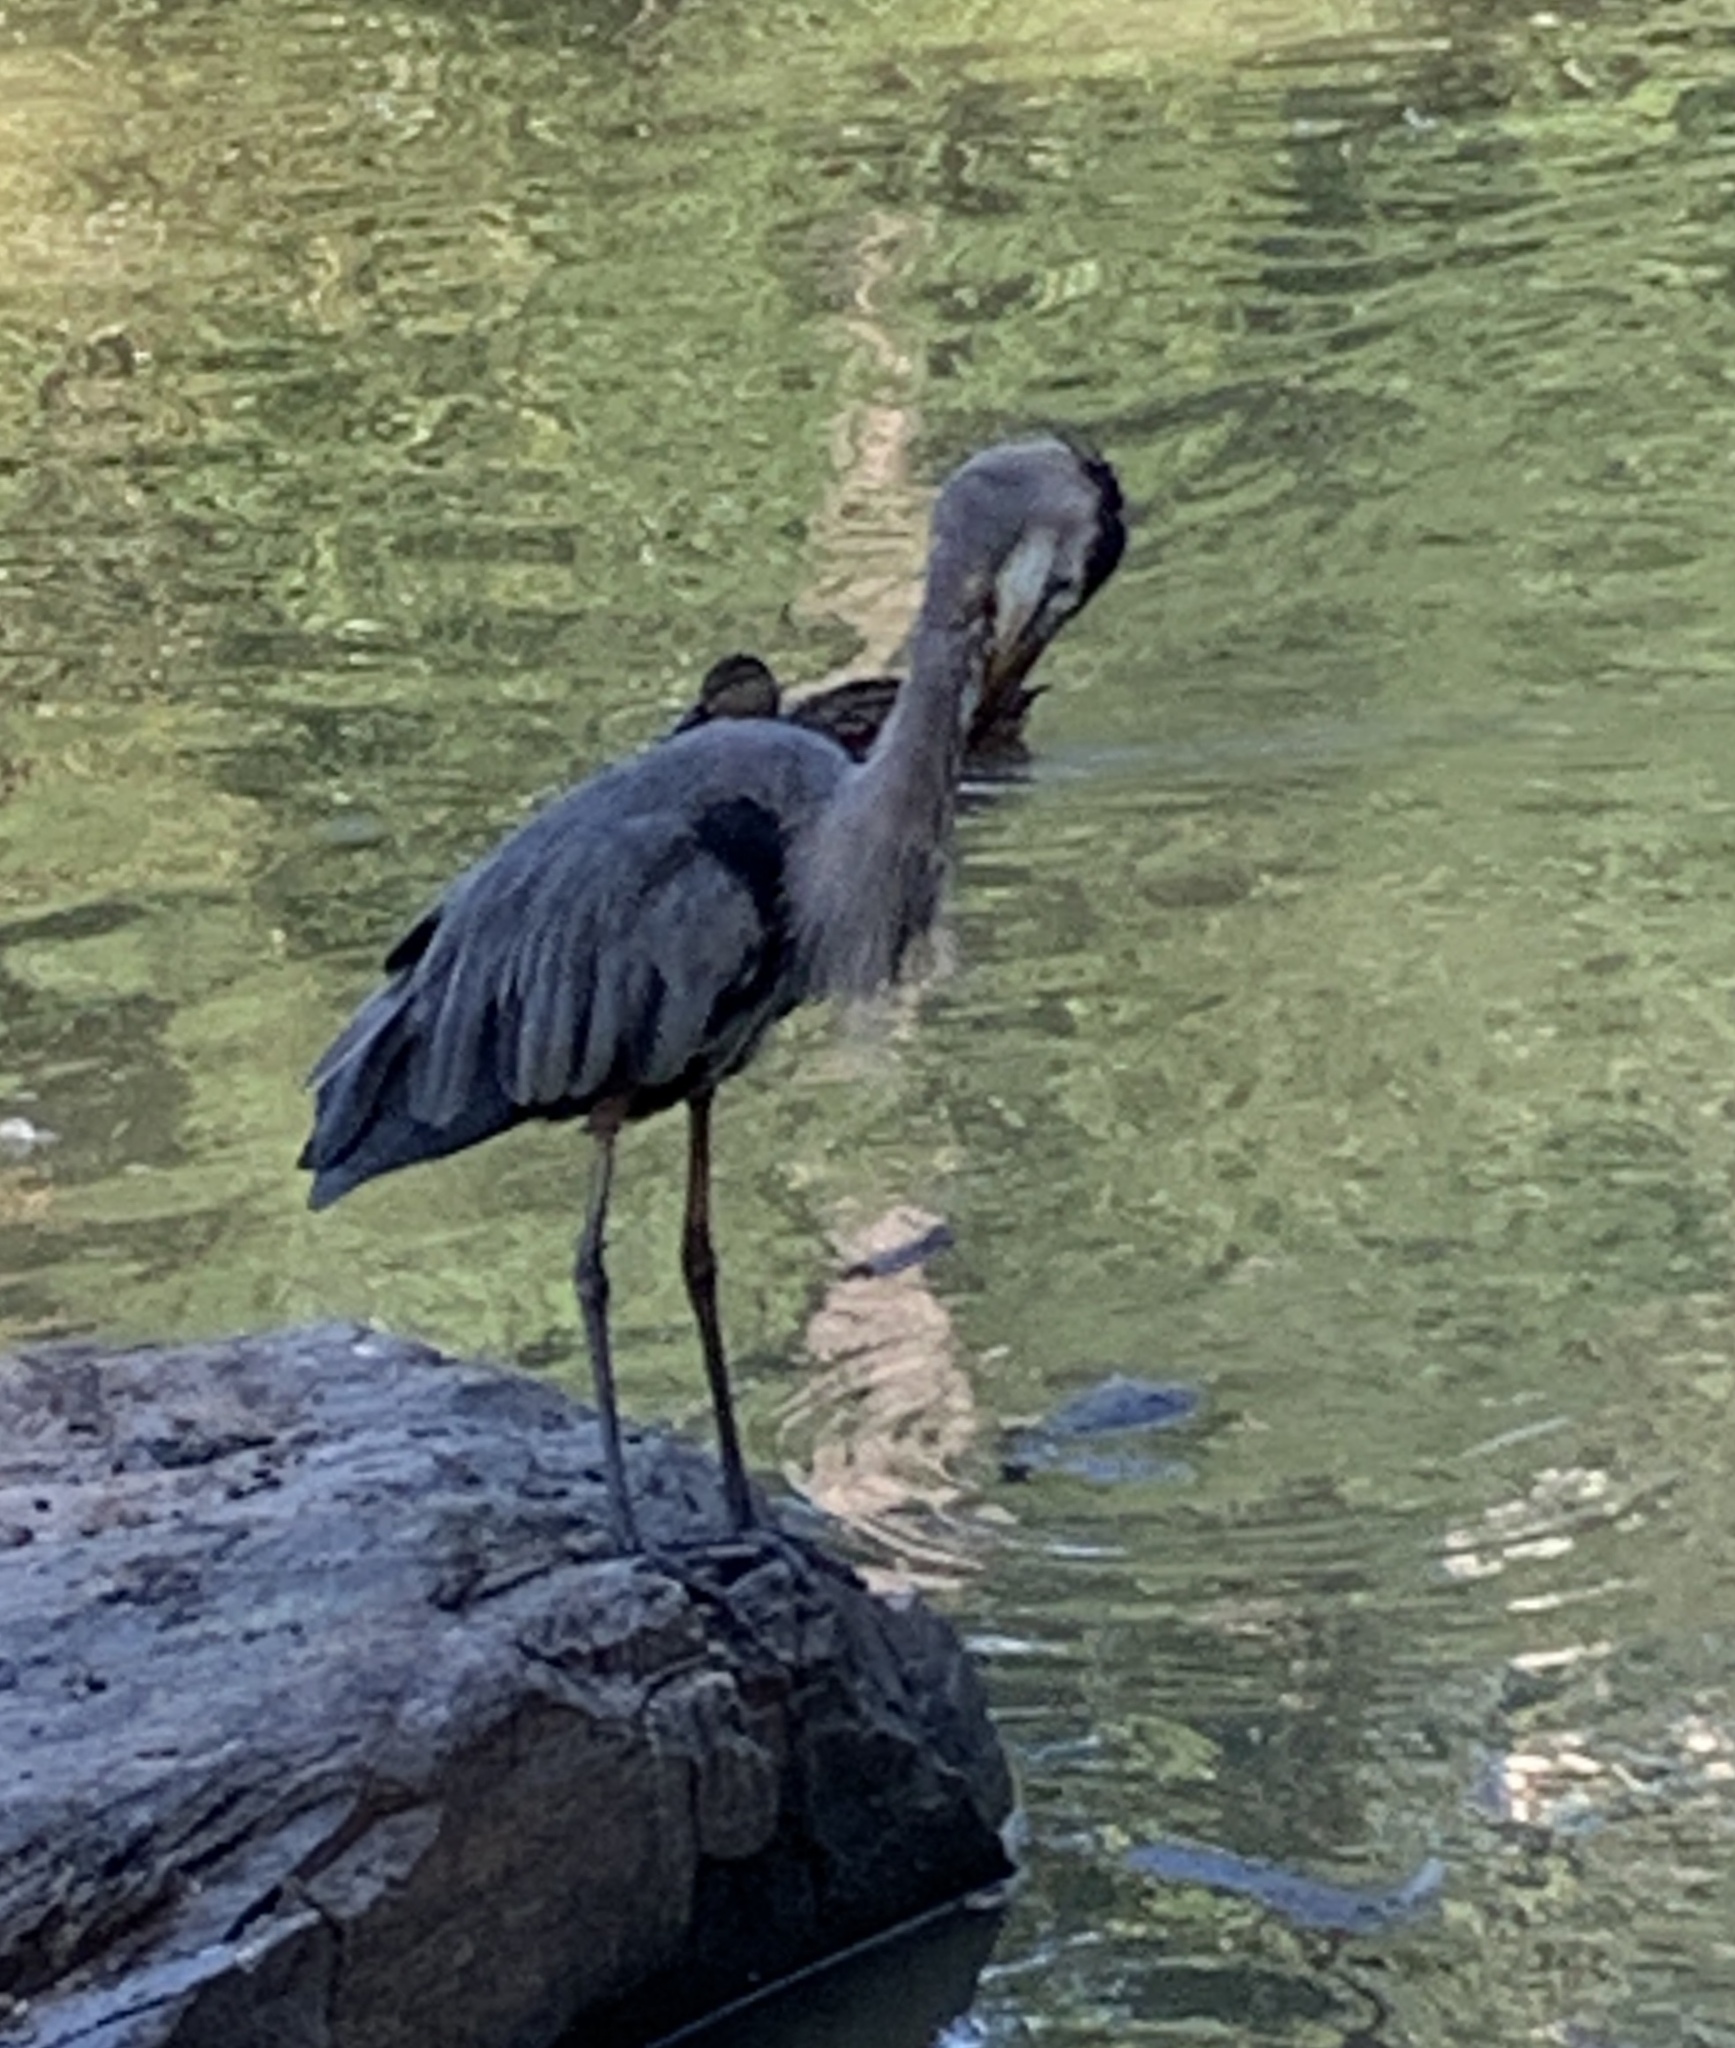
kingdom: Animalia
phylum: Chordata
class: Aves
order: Pelecaniformes
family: Ardeidae
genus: Ardea
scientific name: Ardea herodias
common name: Great blue heron
